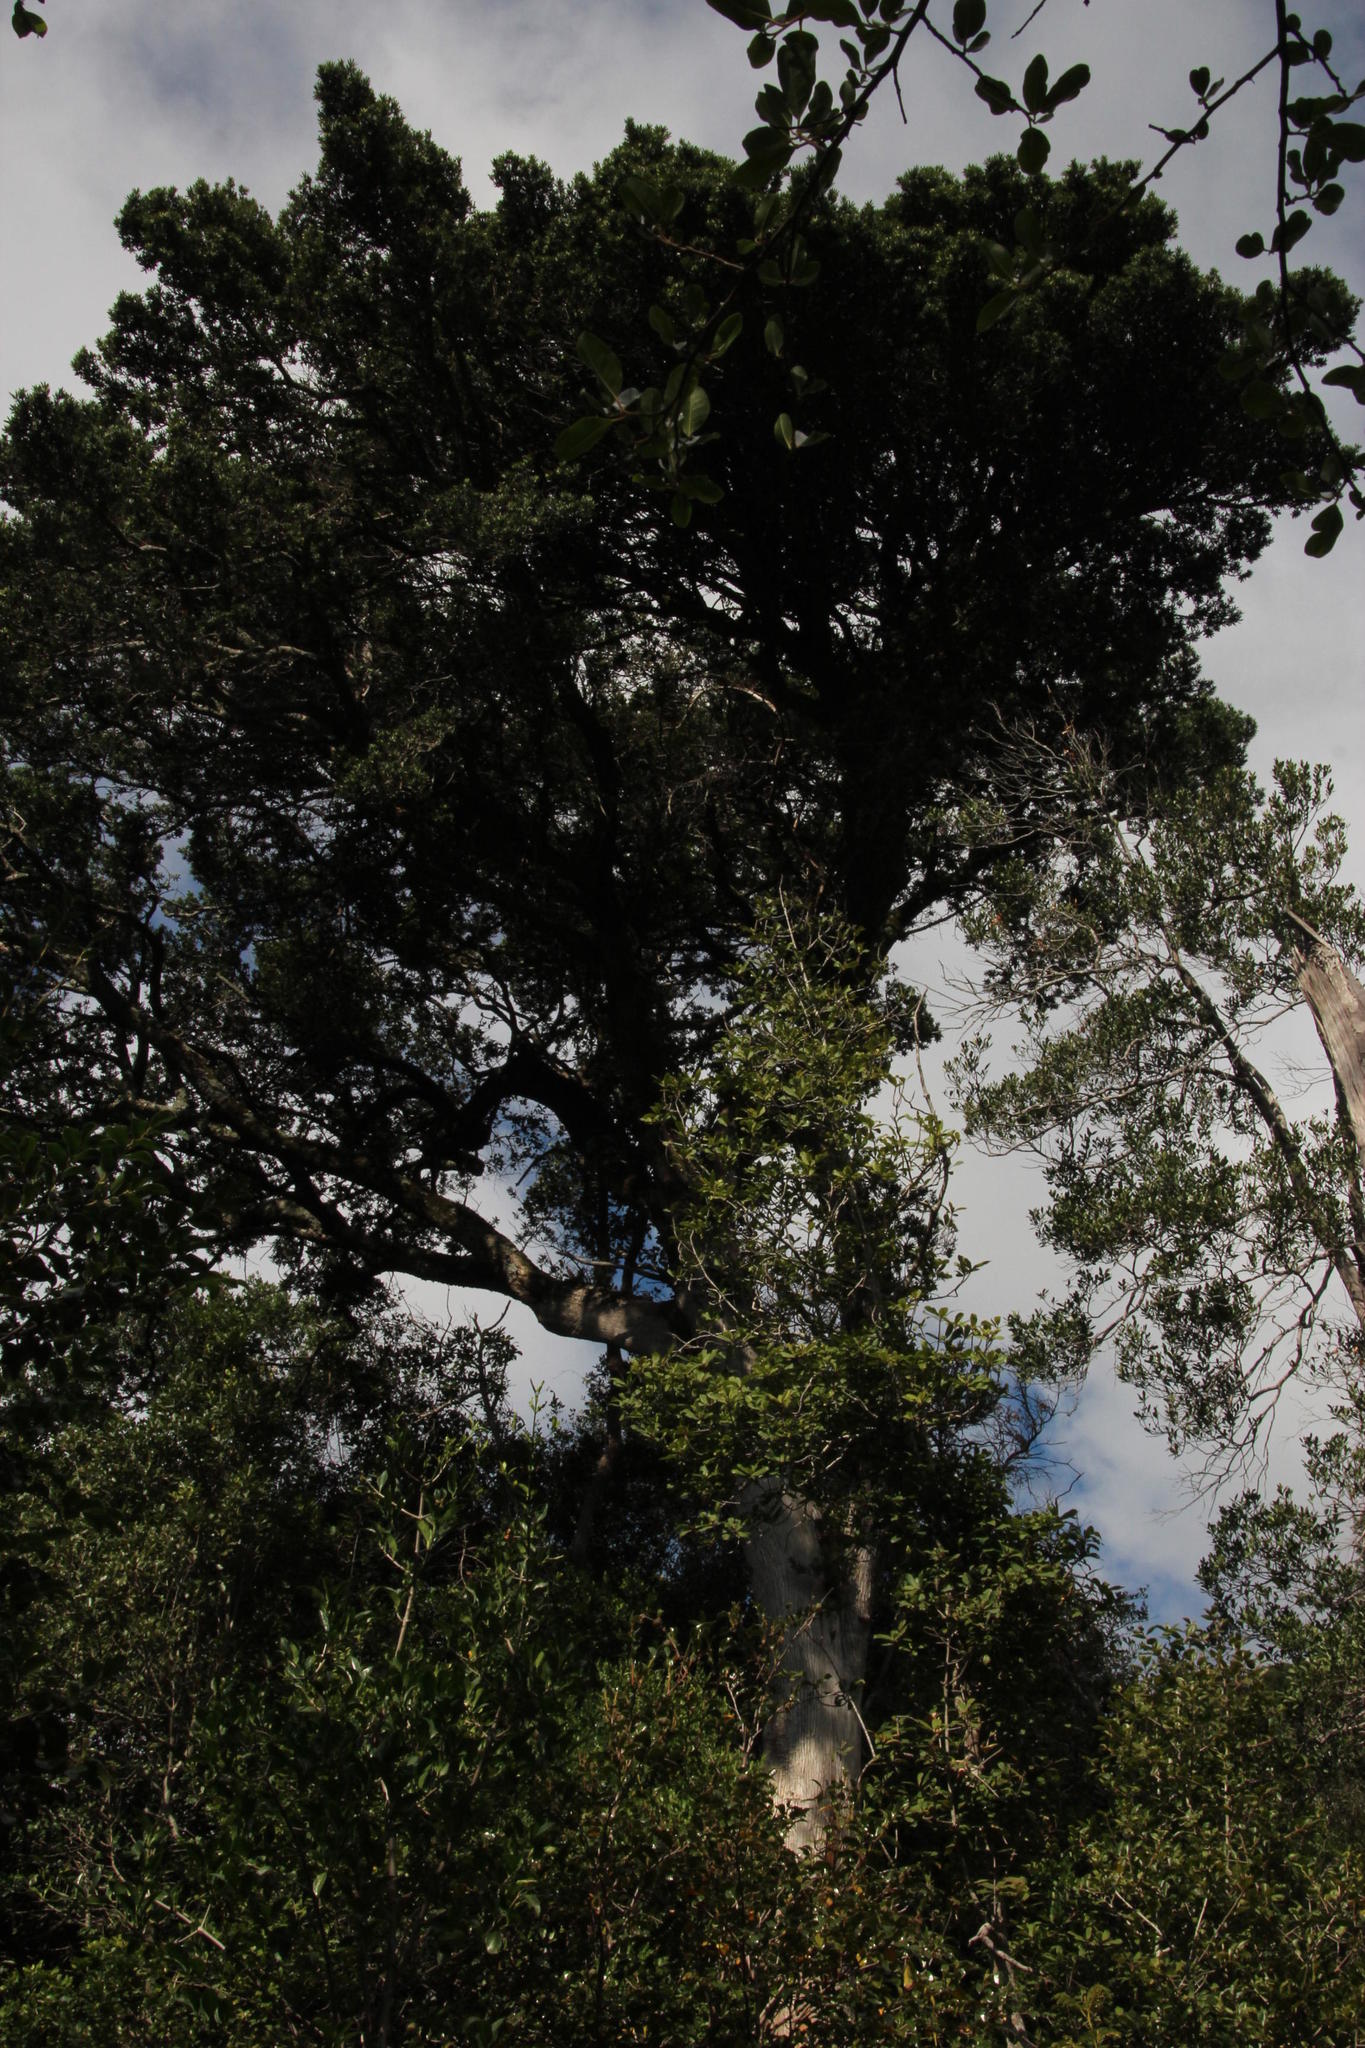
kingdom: Plantae
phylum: Tracheophyta
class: Pinopsida
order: Pinales
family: Podocarpaceae
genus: Podocarpus
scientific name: Podocarpus latifolius
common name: True yellowwood
